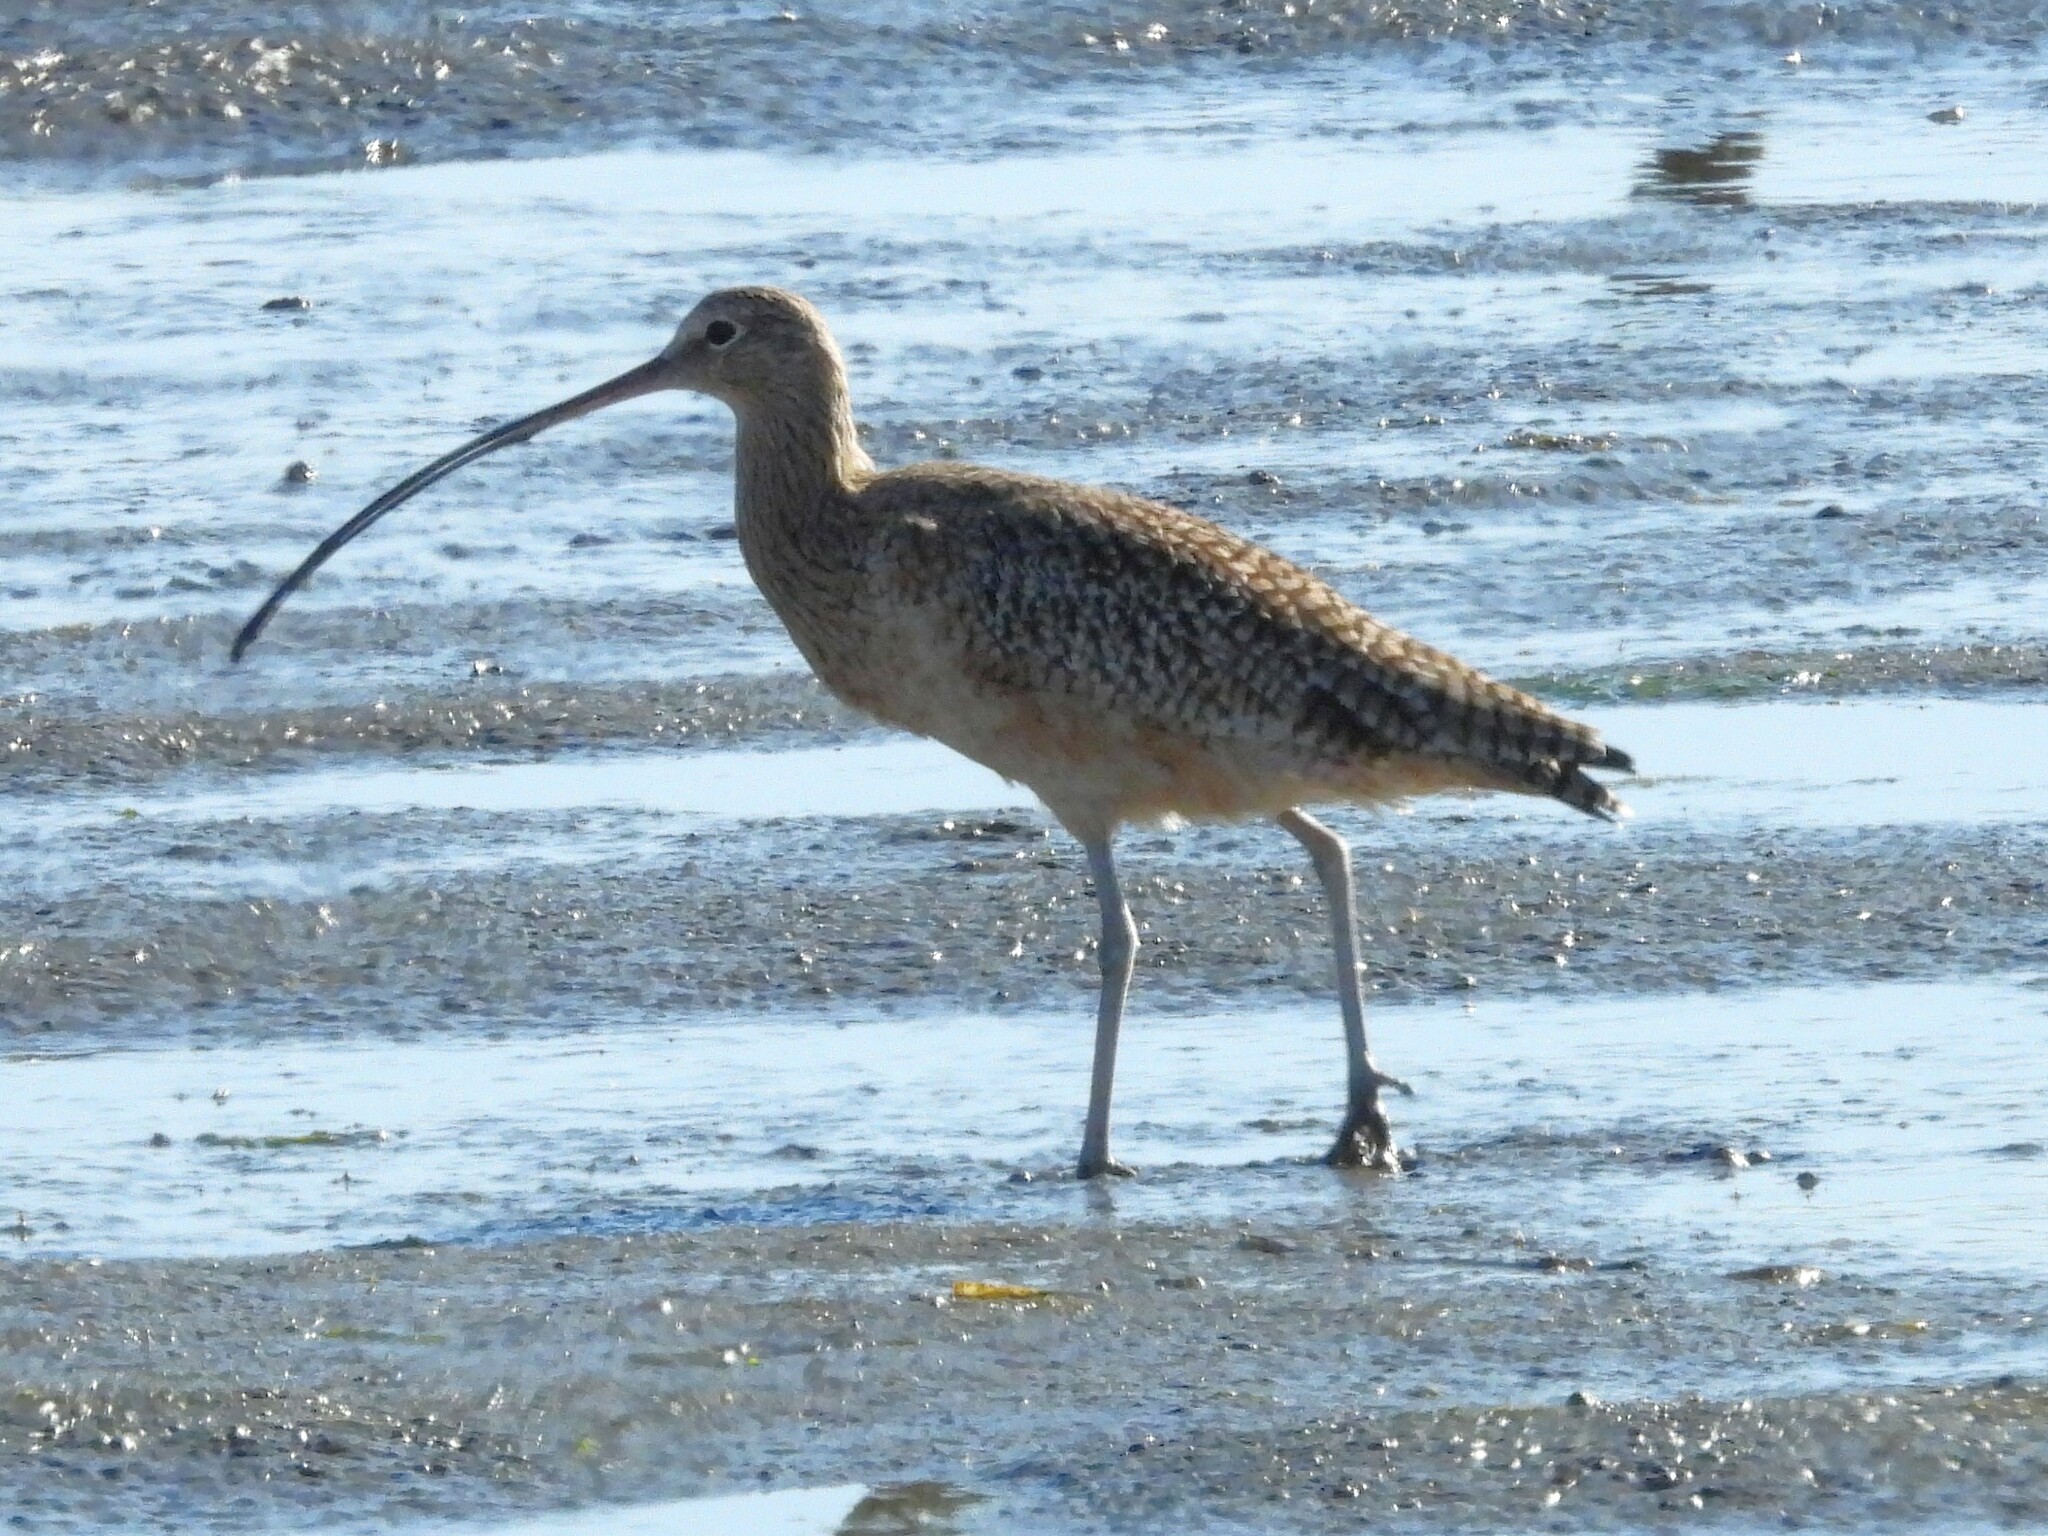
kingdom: Animalia
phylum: Chordata
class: Aves
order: Charadriiformes
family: Scolopacidae
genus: Numenius
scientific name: Numenius americanus
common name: Long-billed curlew
